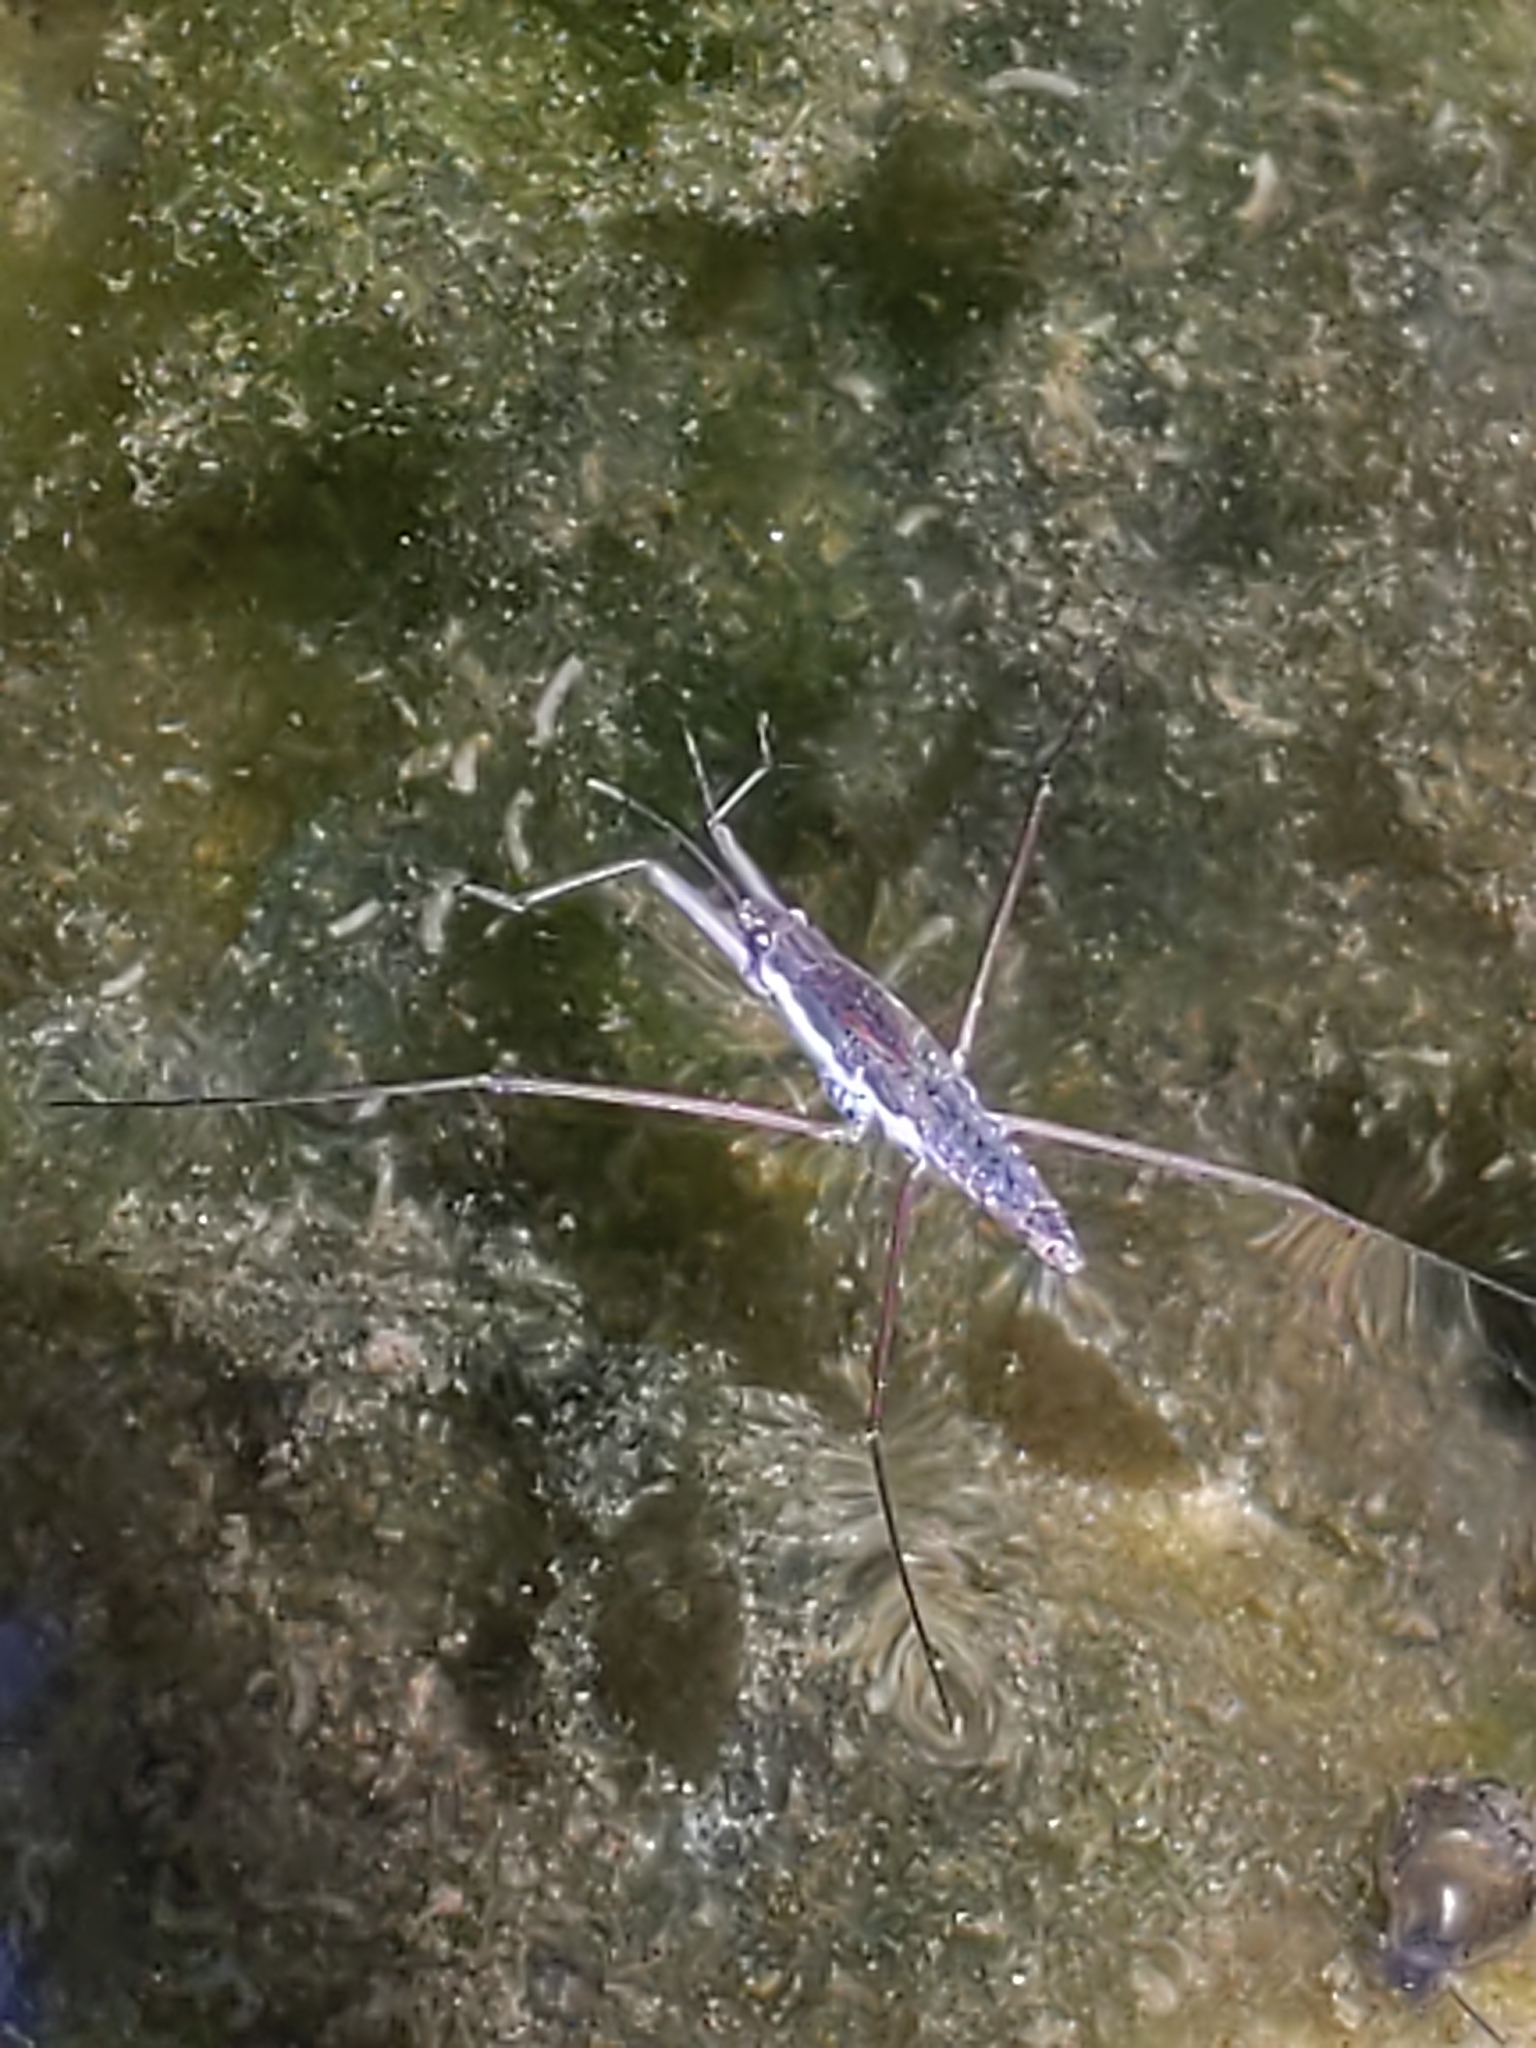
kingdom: Animalia
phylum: Arthropoda
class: Insecta
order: Hemiptera
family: Gerridae
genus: Aquarius
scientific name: Aquarius
